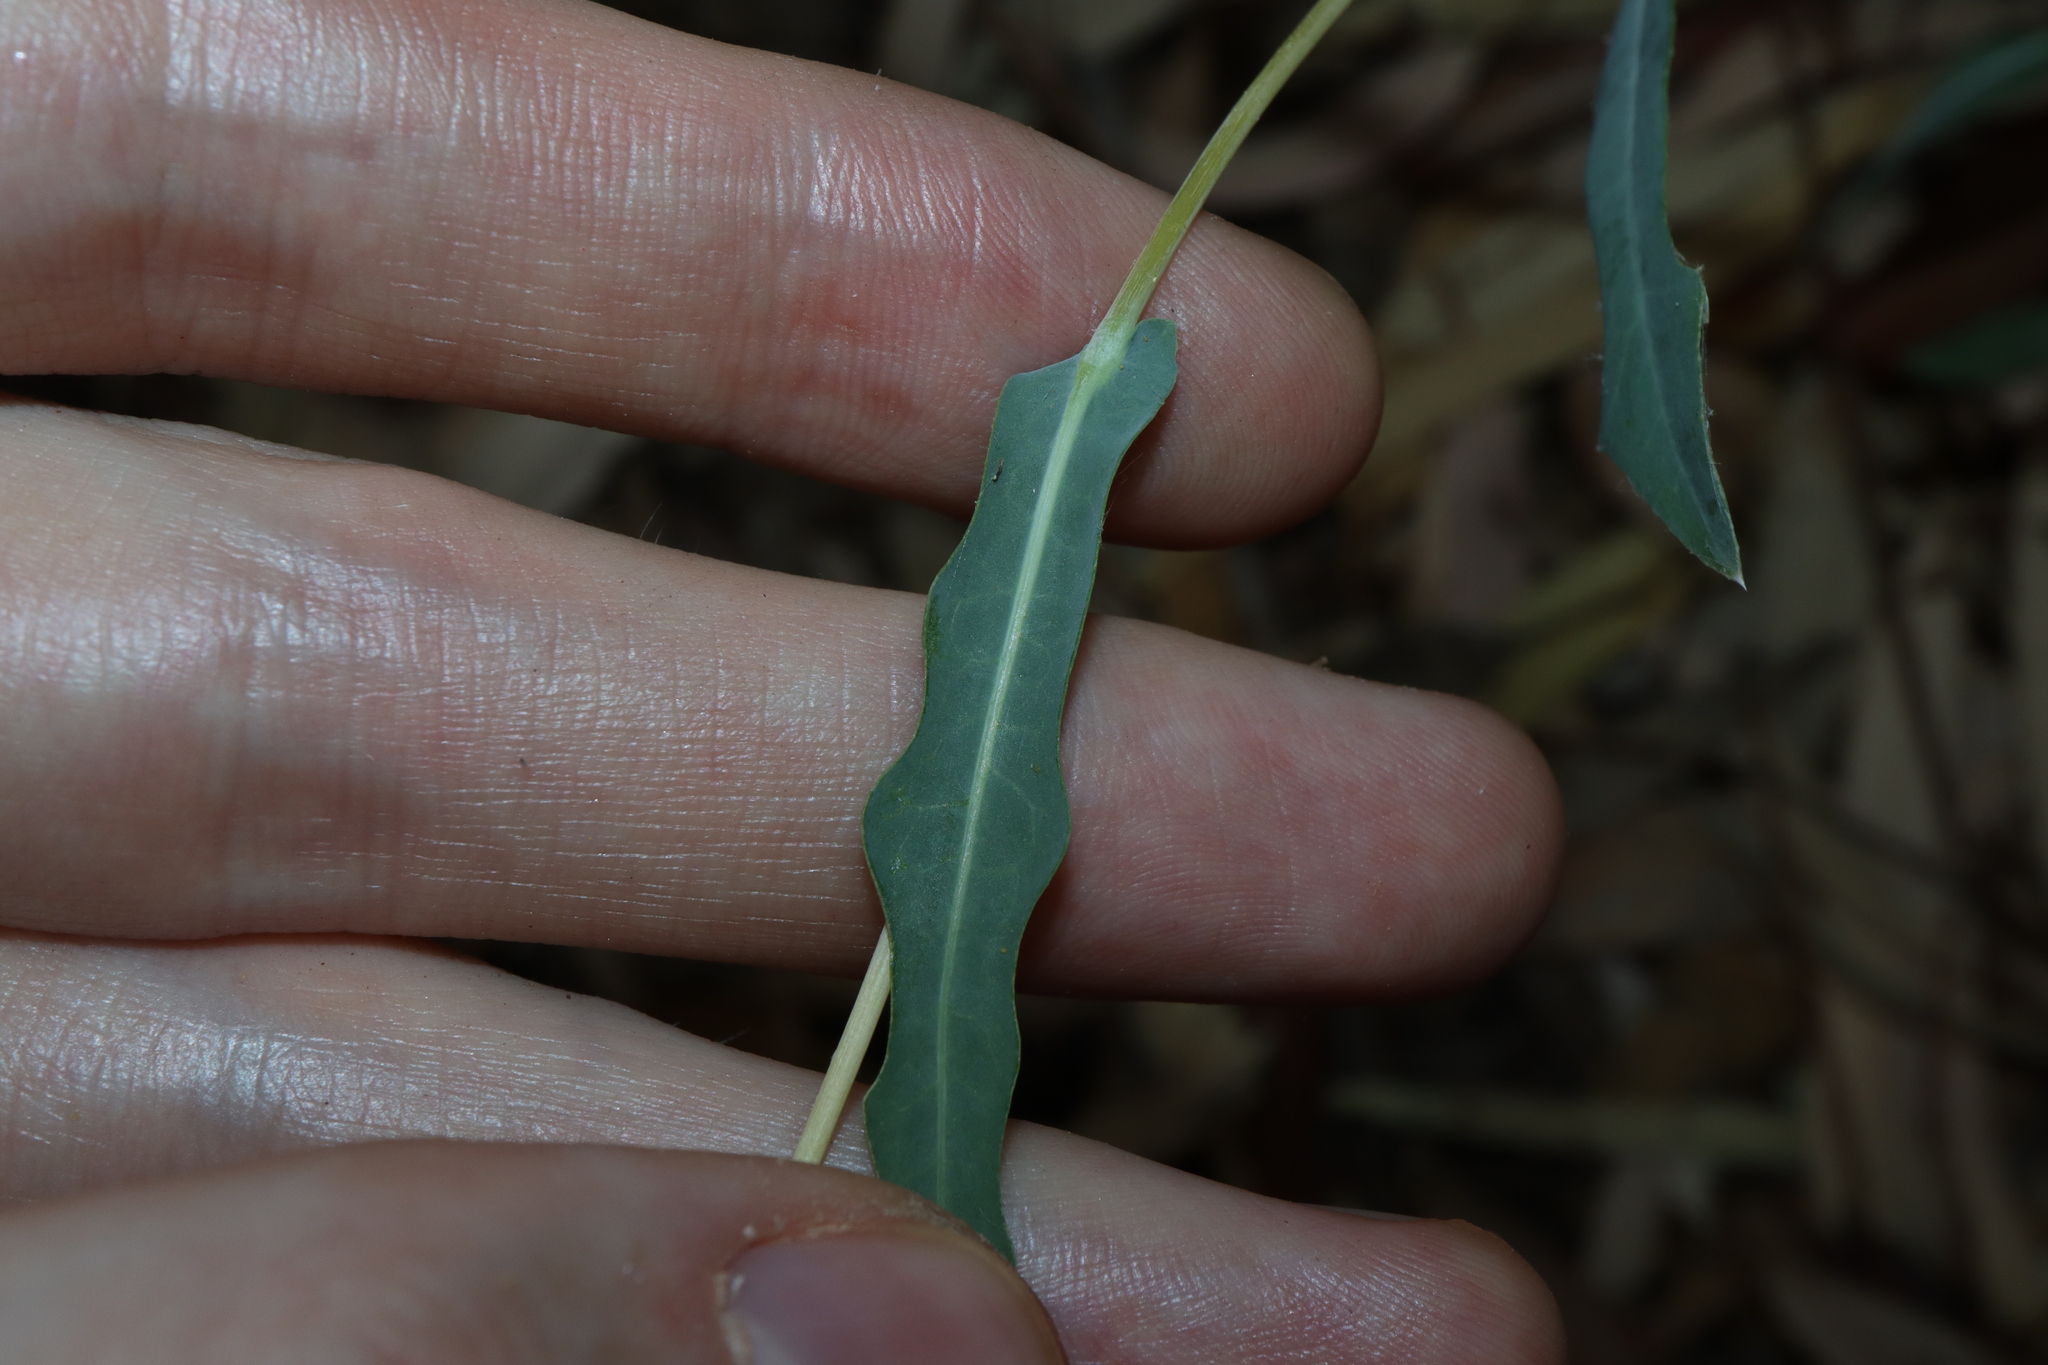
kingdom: Plantae
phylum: Tracheophyta
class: Magnoliopsida
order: Asterales
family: Asteraceae
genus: Lactuca
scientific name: Lactuca saligna
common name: Wild lettuce
